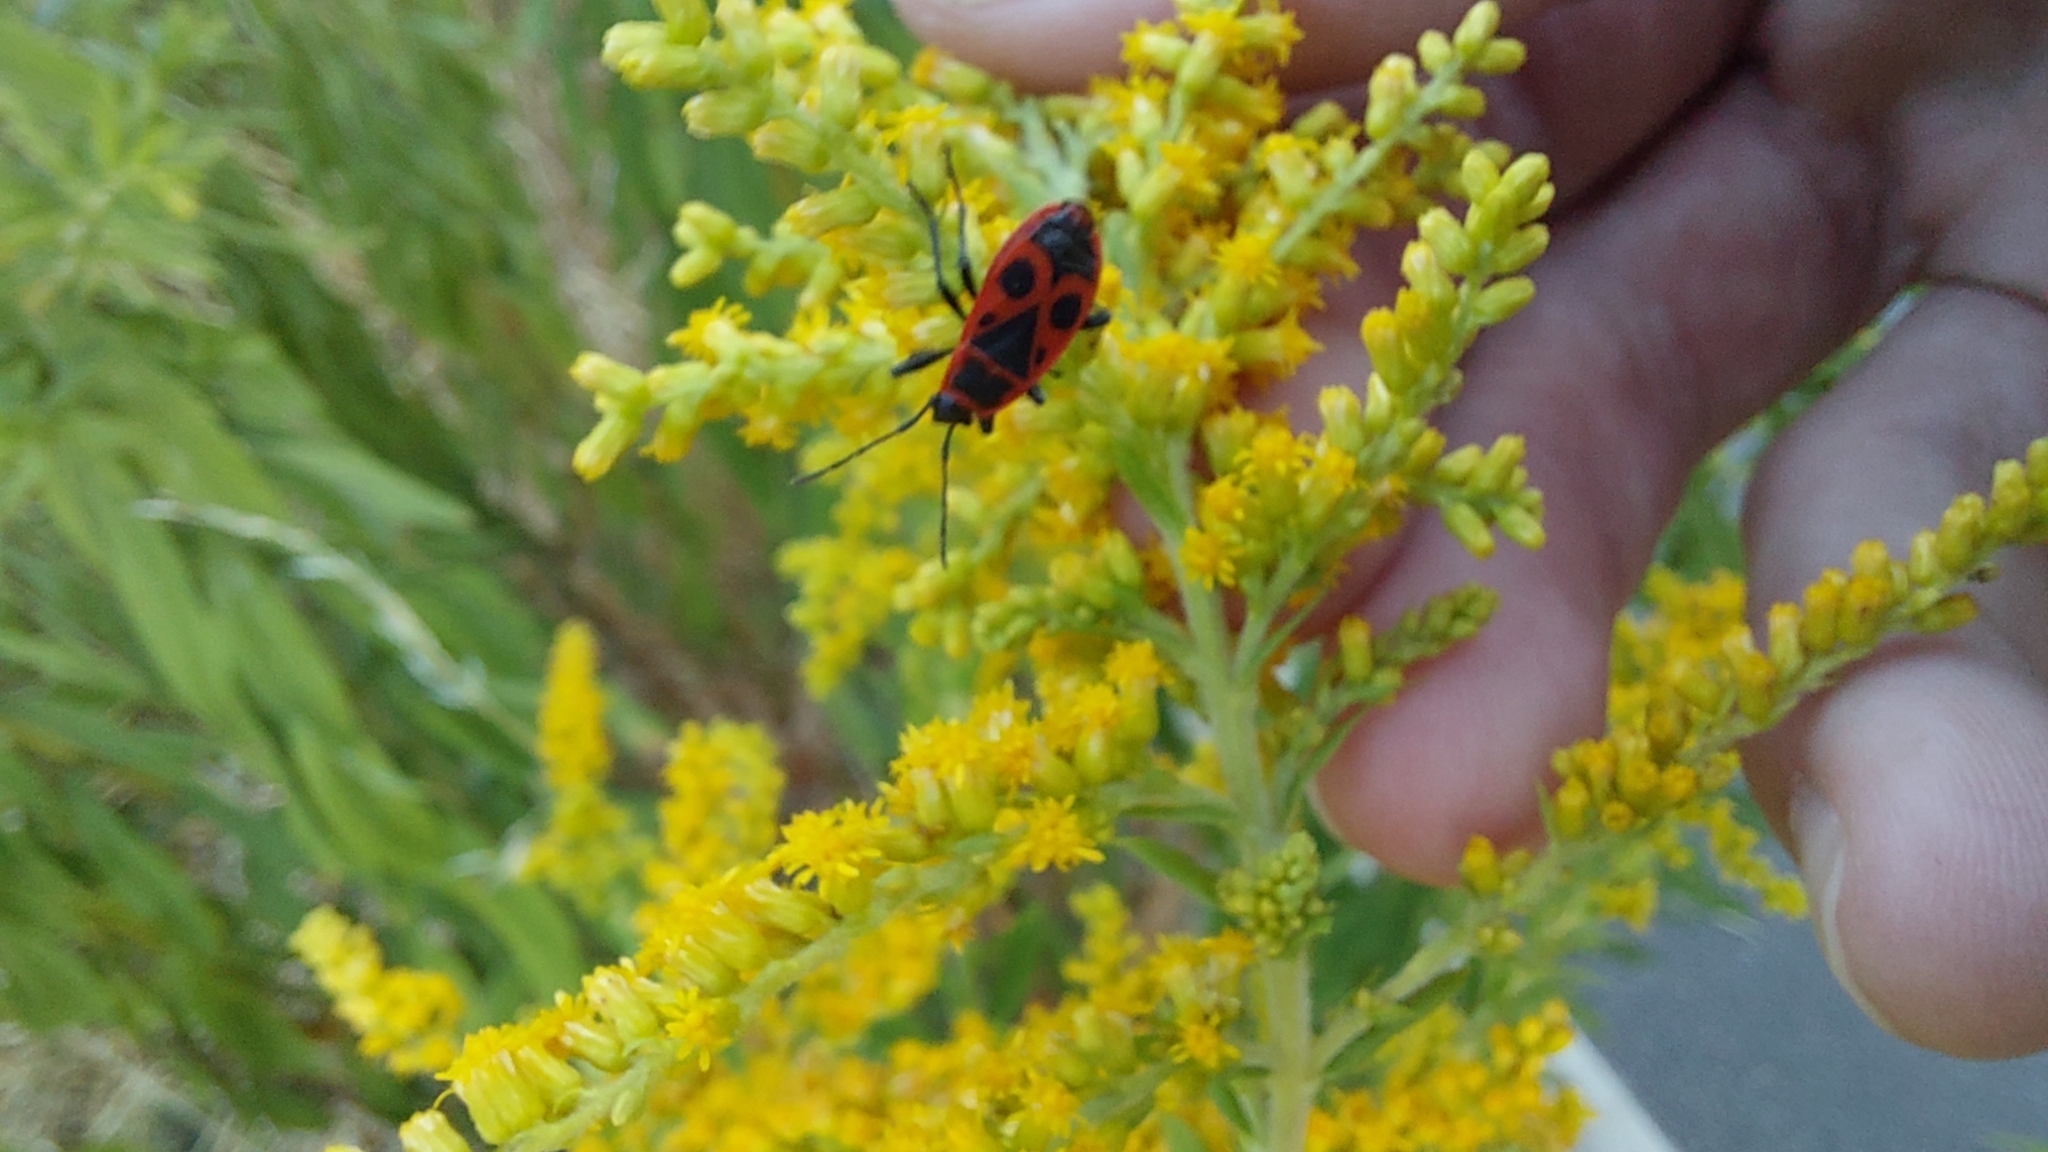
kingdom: Animalia
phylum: Arthropoda
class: Insecta
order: Hemiptera
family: Pyrrhocoridae
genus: Pyrrhocoris
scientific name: Pyrrhocoris apterus
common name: Firebug
